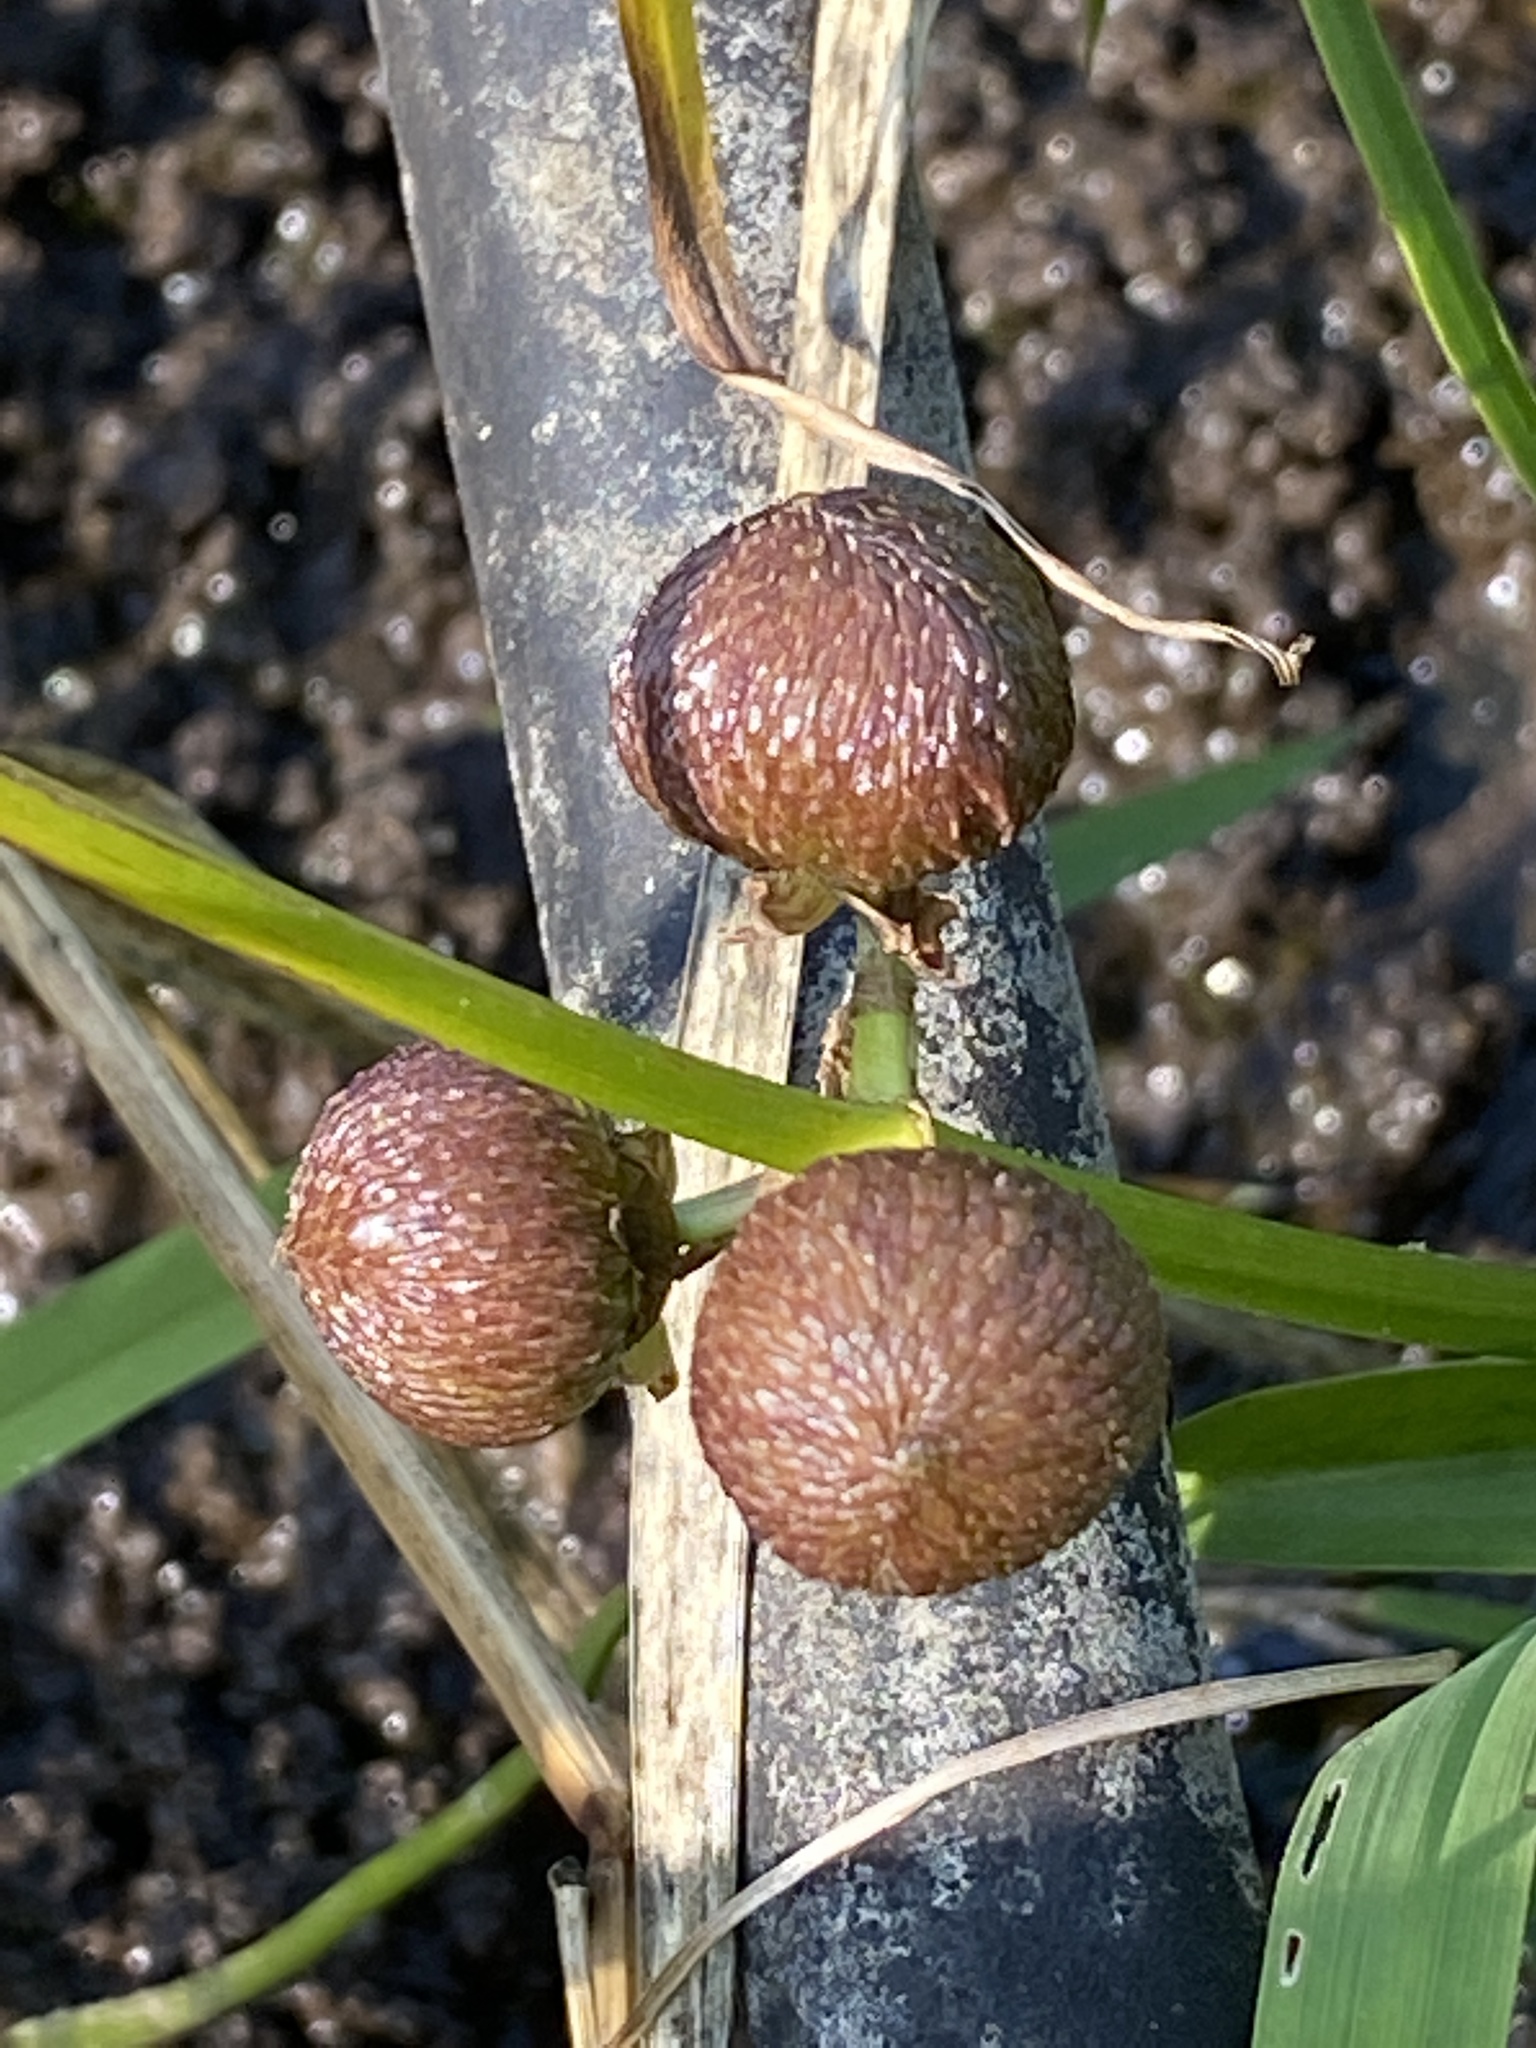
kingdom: Plantae
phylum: Tracheophyta
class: Liliopsida
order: Alismatales
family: Alismataceae
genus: Sagittaria
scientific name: Sagittaria latifolia
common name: Duck-potato
